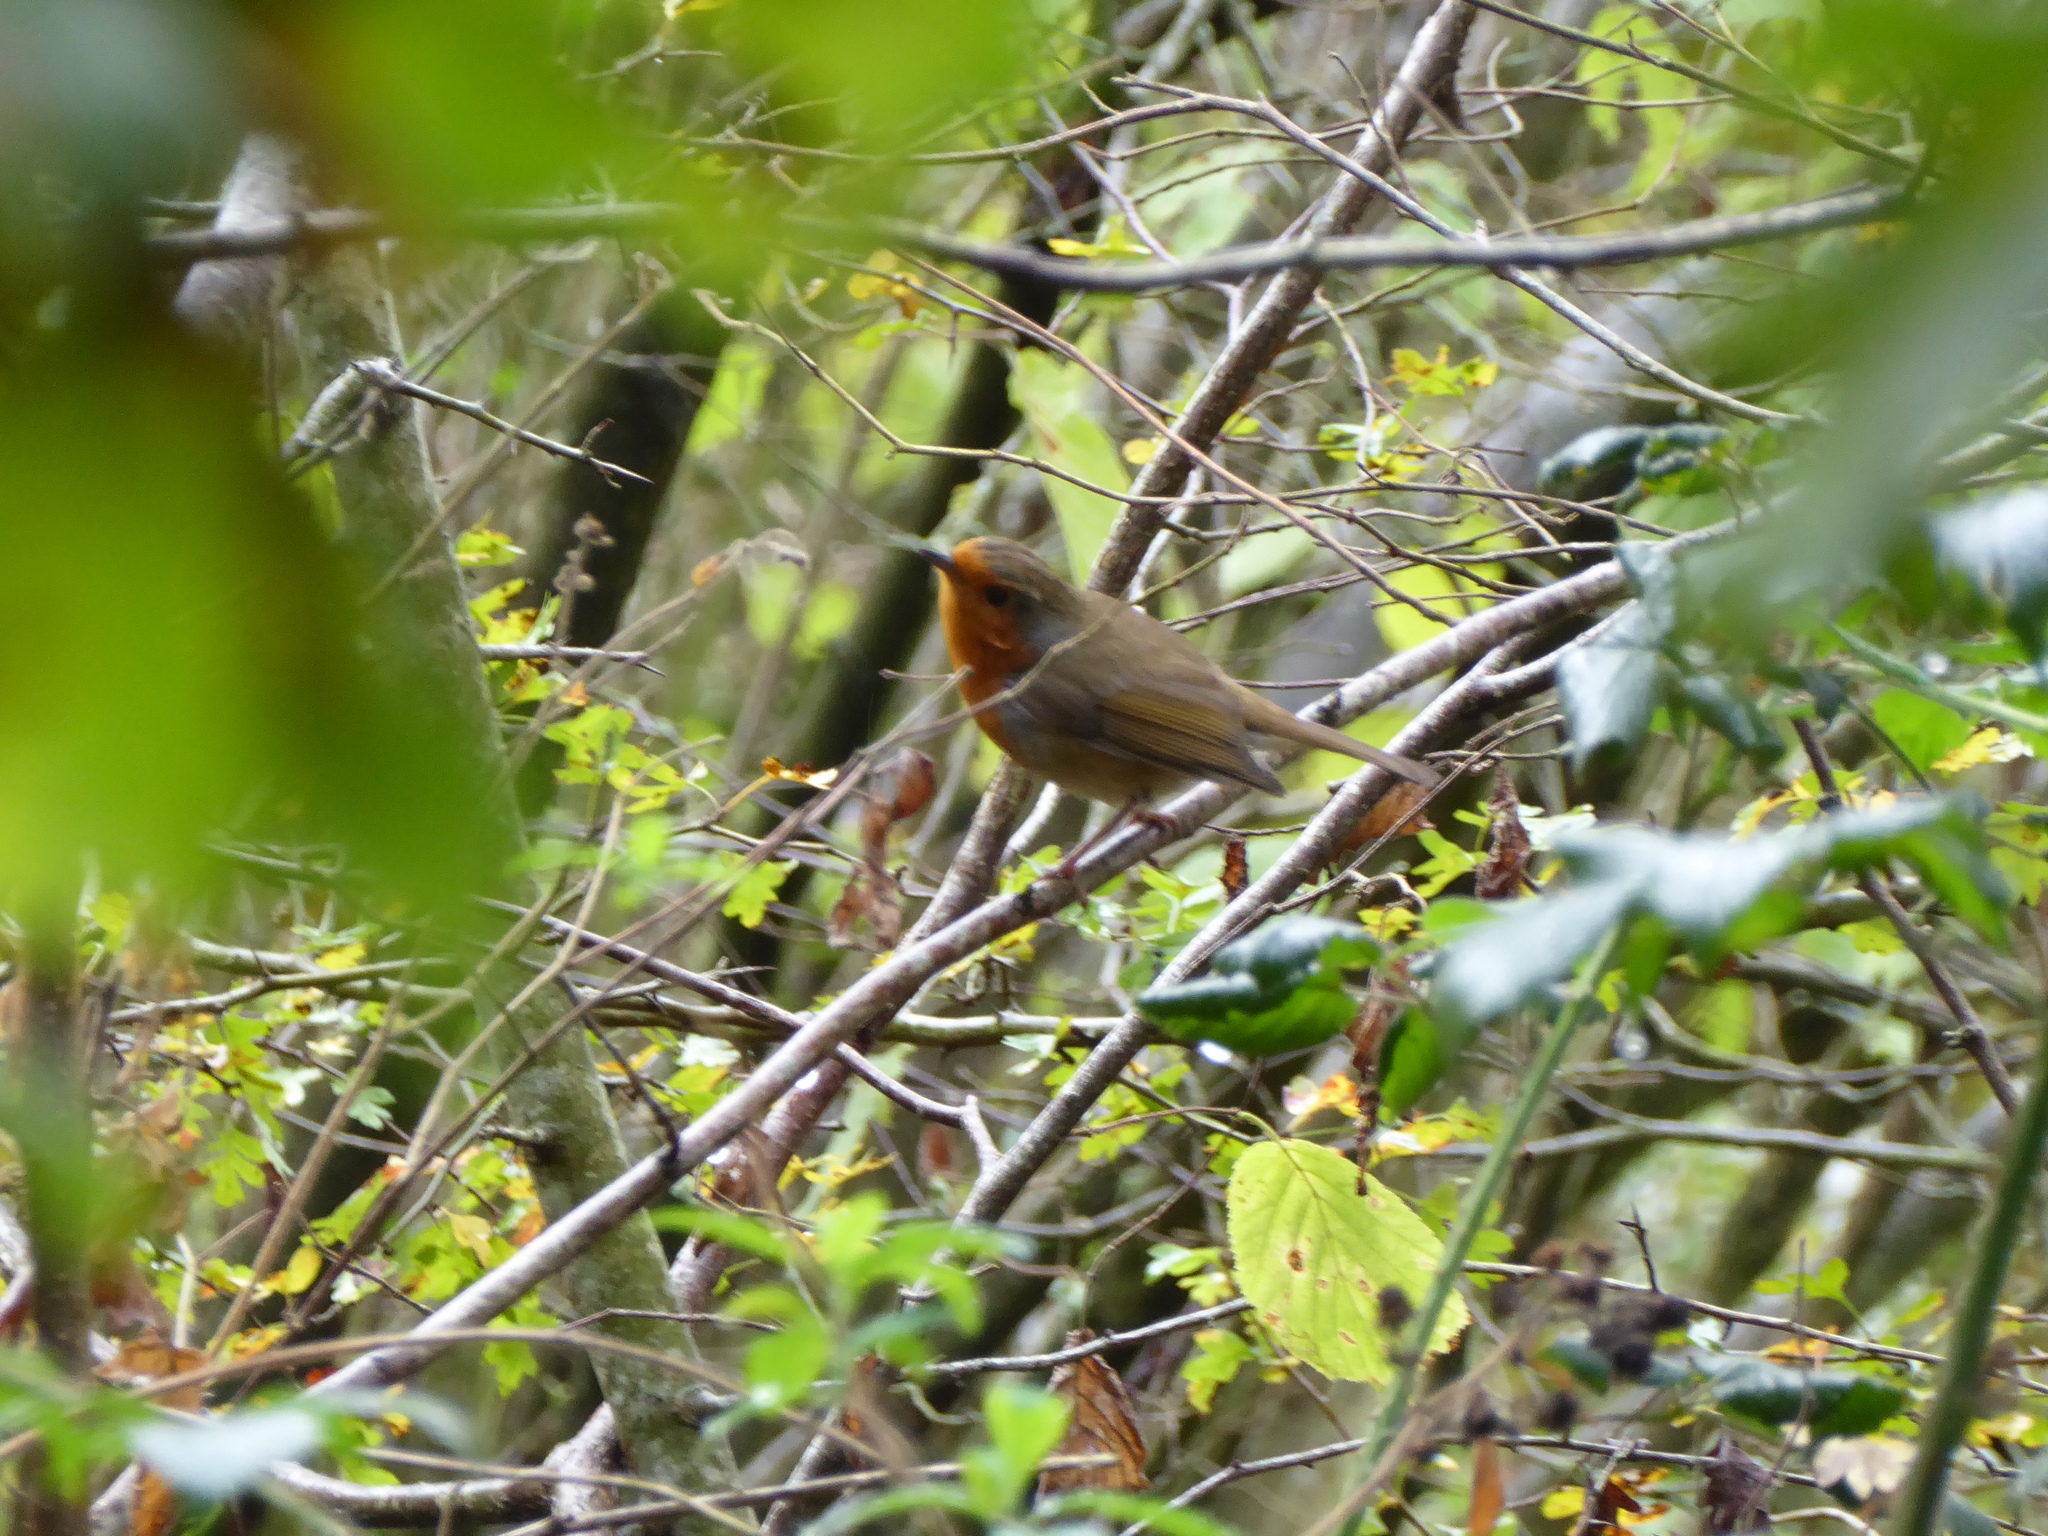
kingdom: Animalia
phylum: Chordata
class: Aves
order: Passeriformes
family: Muscicapidae
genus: Erithacus
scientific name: Erithacus rubecula
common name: European robin
